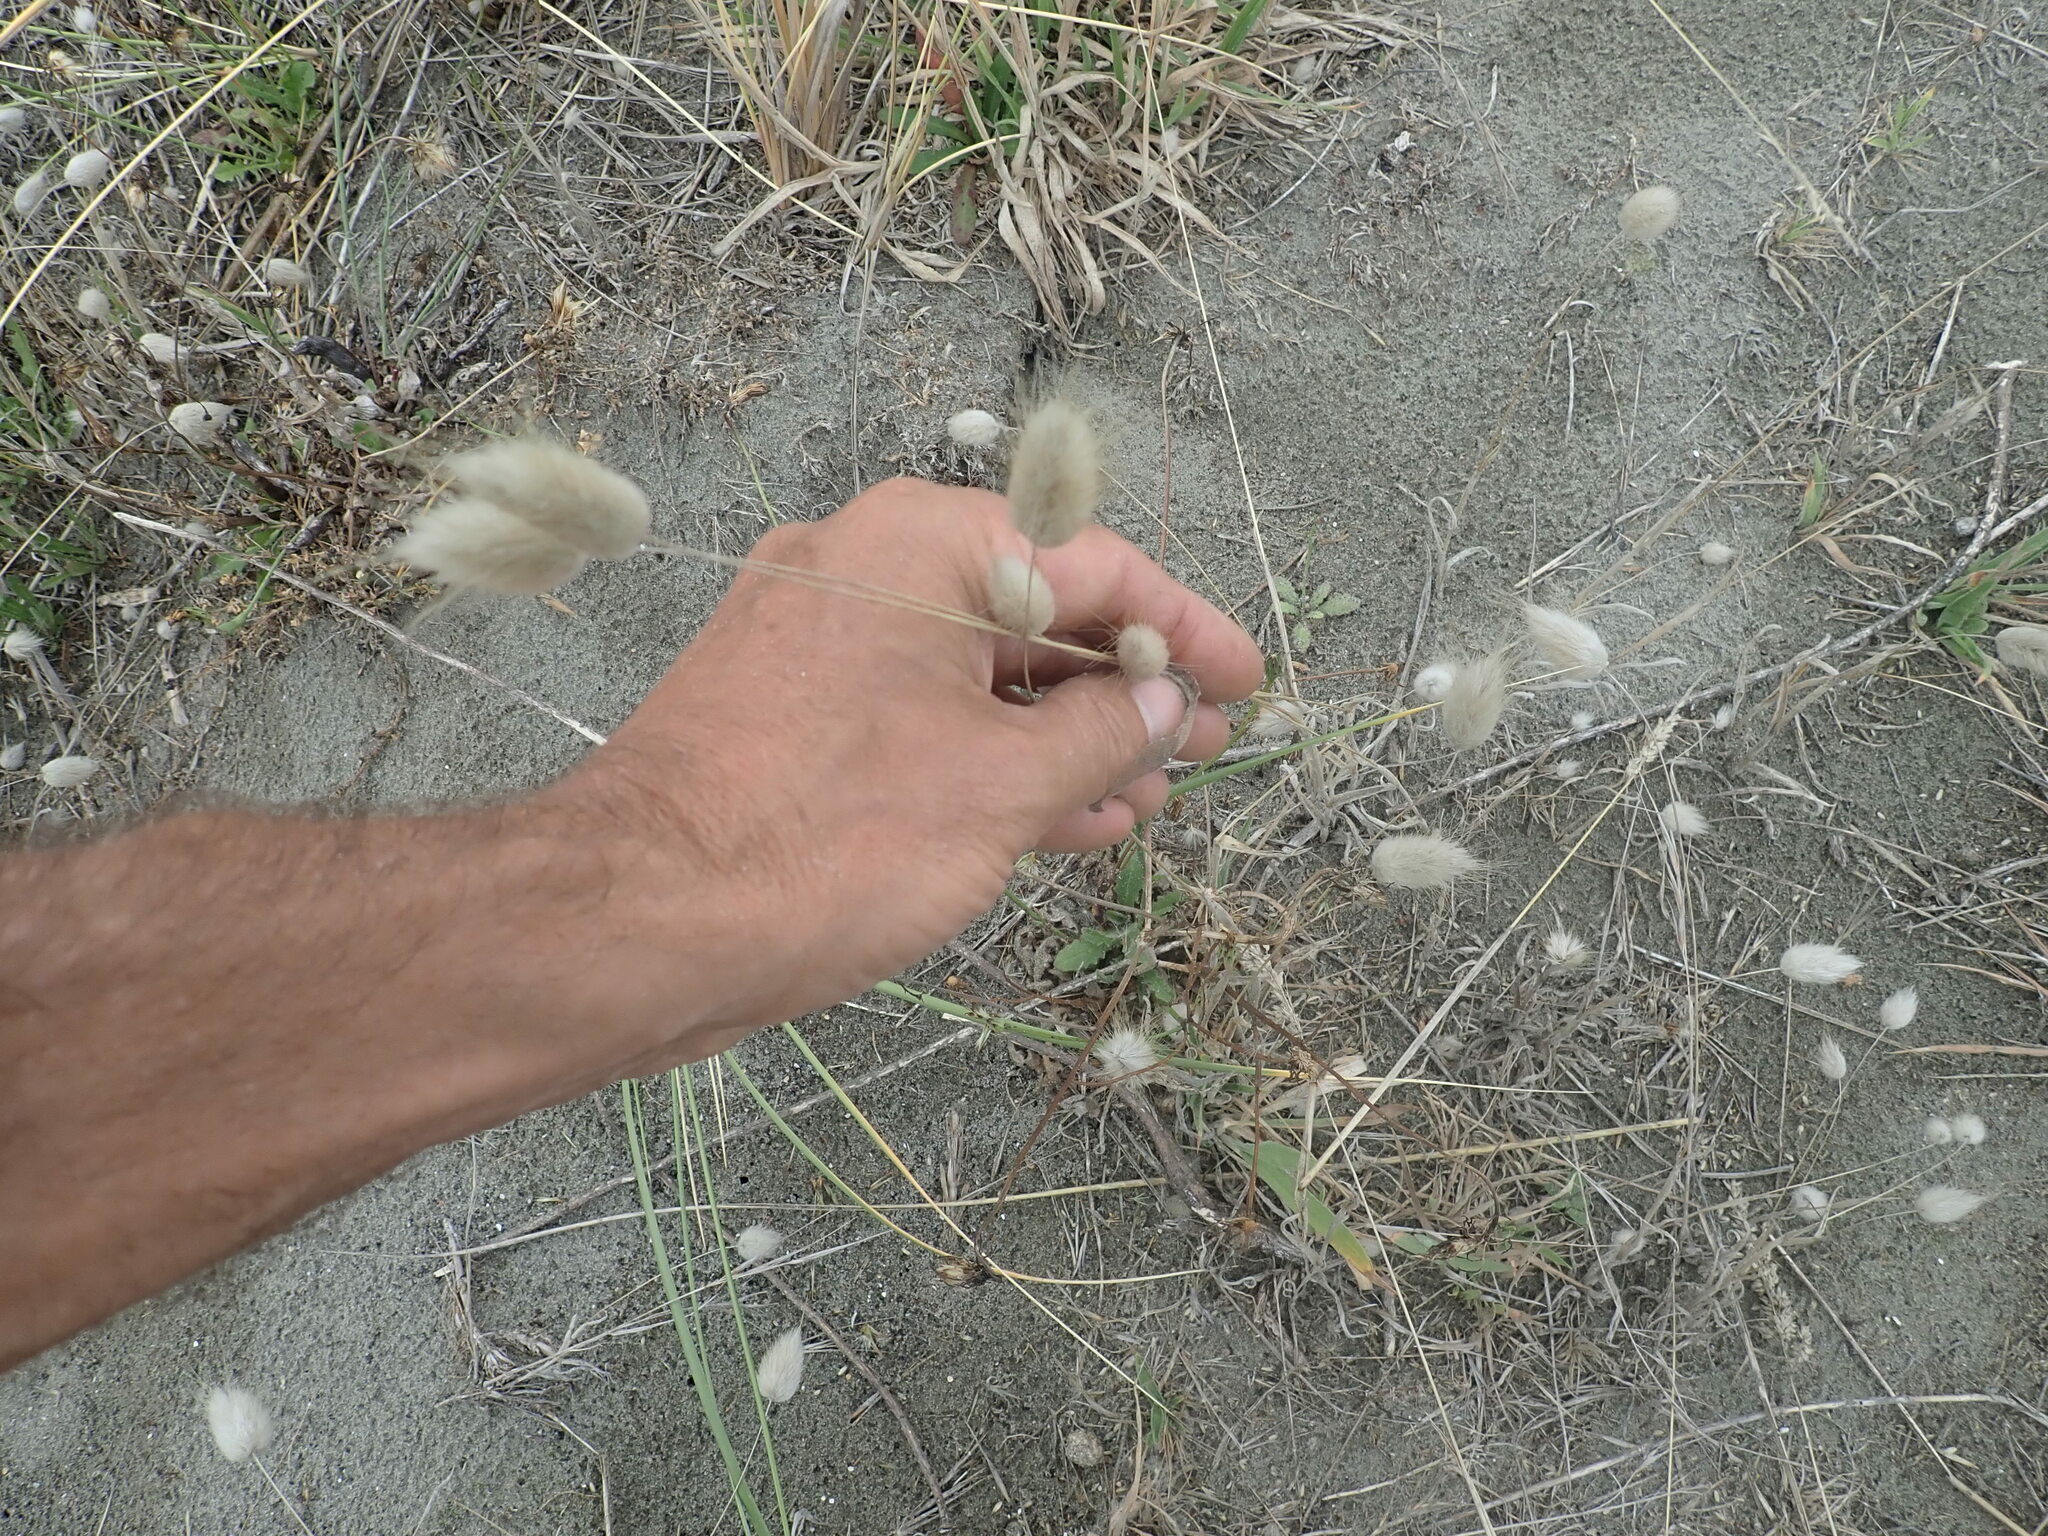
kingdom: Plantae
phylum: Tracheophyta
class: Liliopsida
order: Poales
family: Poaceae
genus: Lagurus
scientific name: Lagurus ovatus
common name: Hare's-tail
